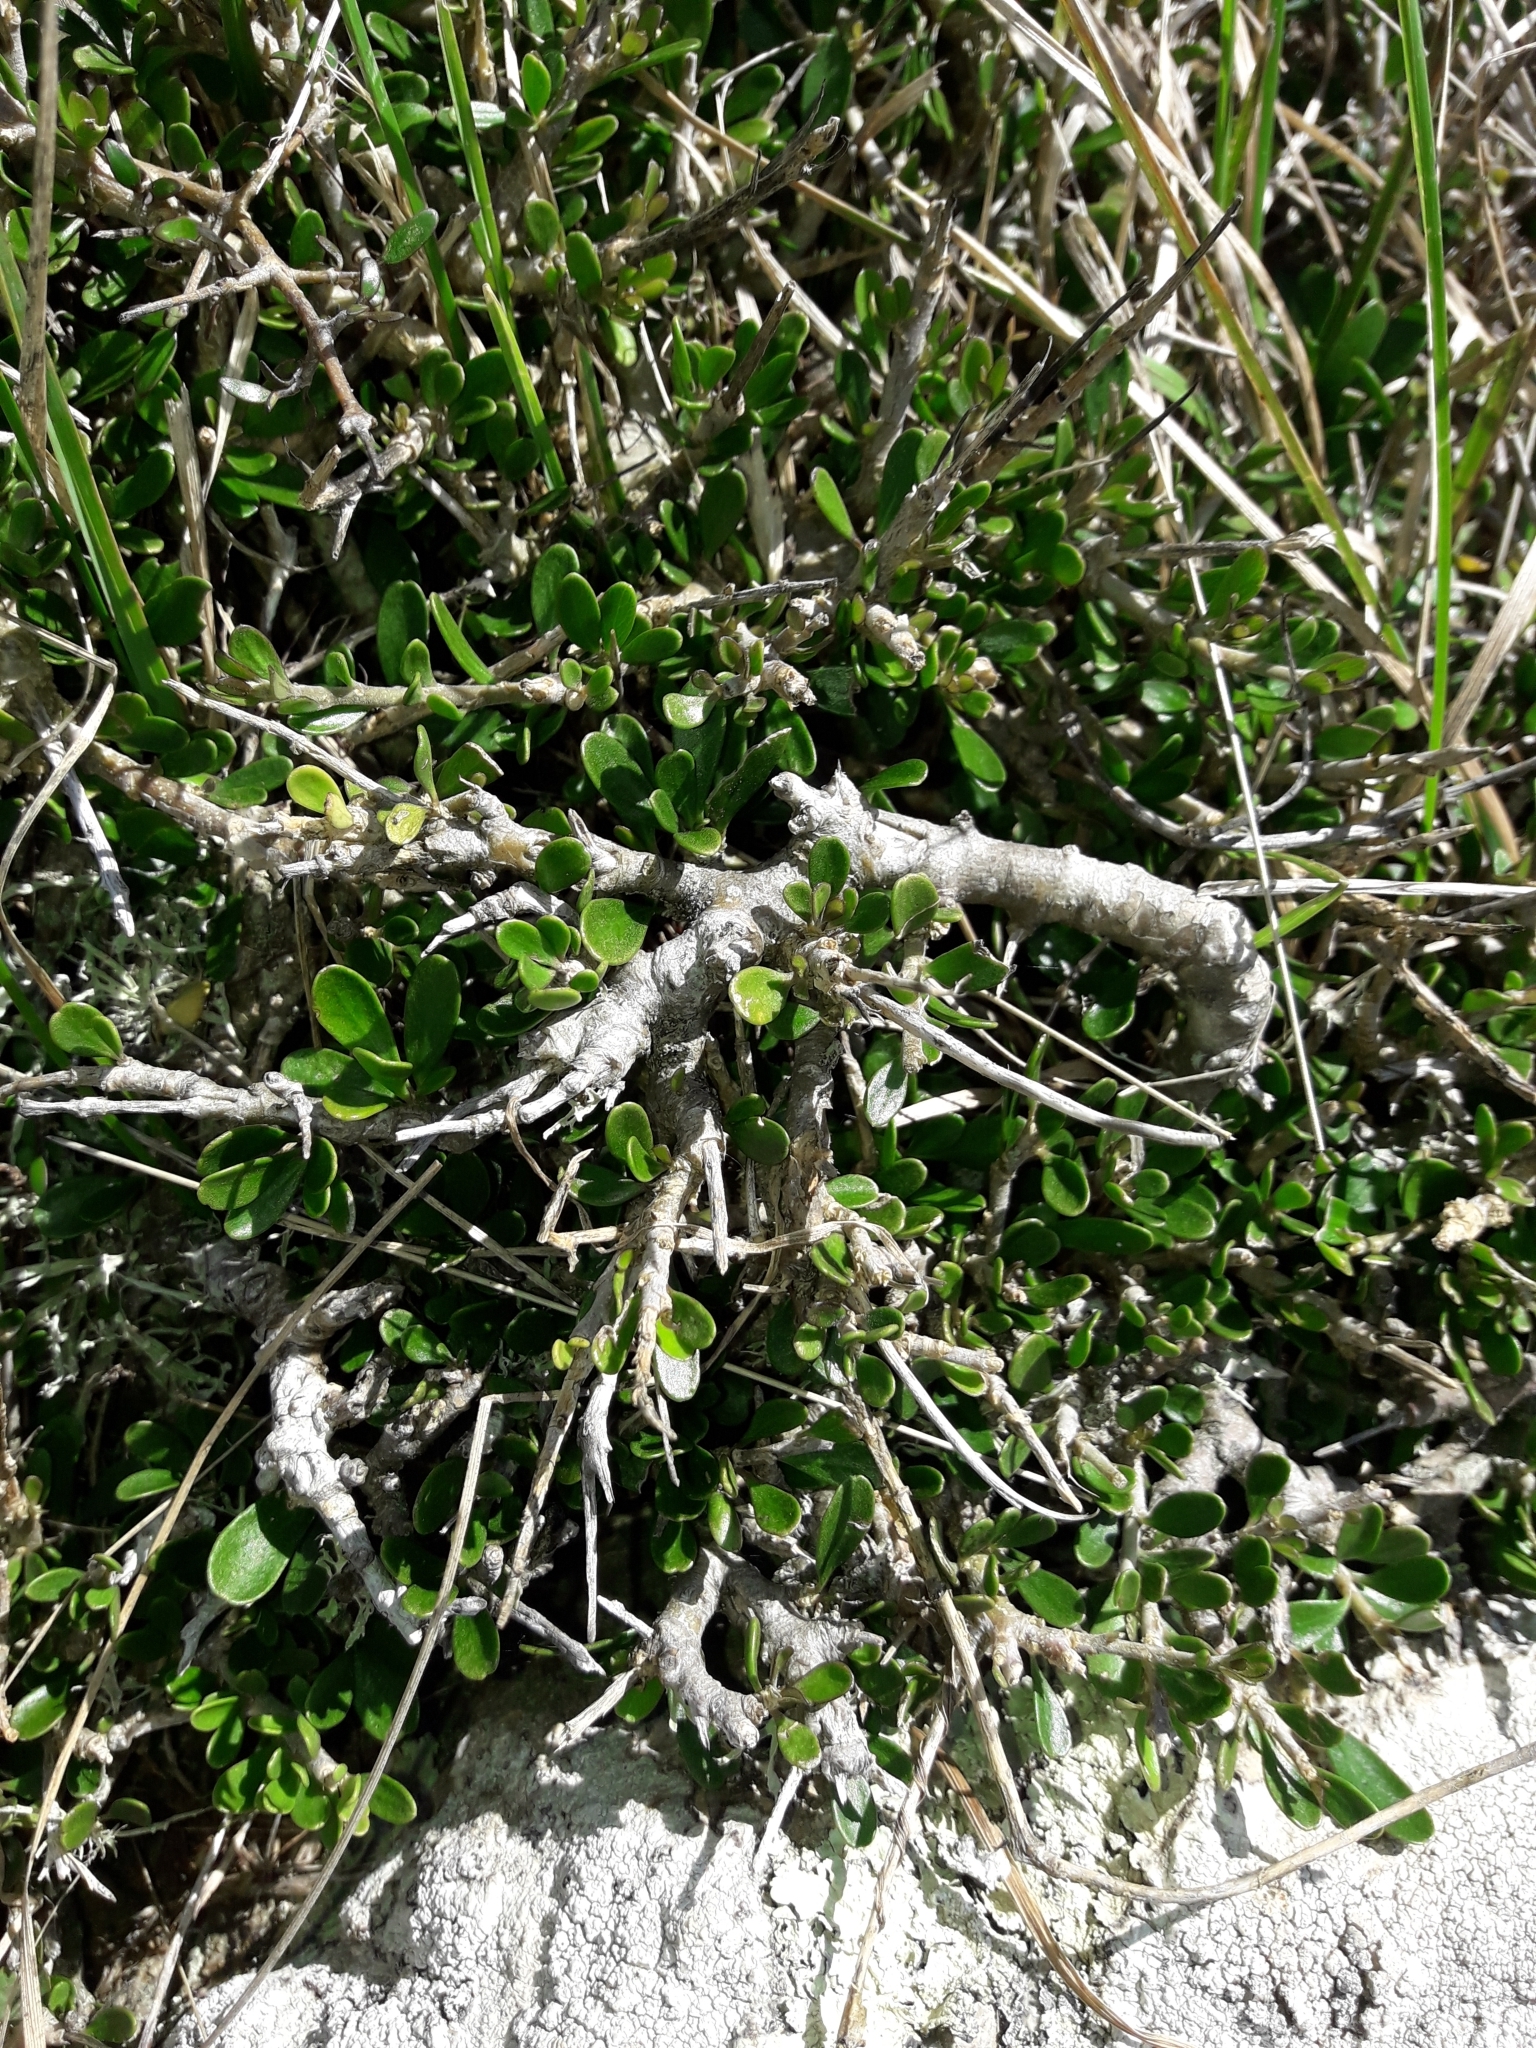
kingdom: Plantae
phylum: Tracheophyta
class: Magnoliopsida
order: Malpighiales
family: Violaceae
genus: Melicytus
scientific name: Melicytus crassifolius
